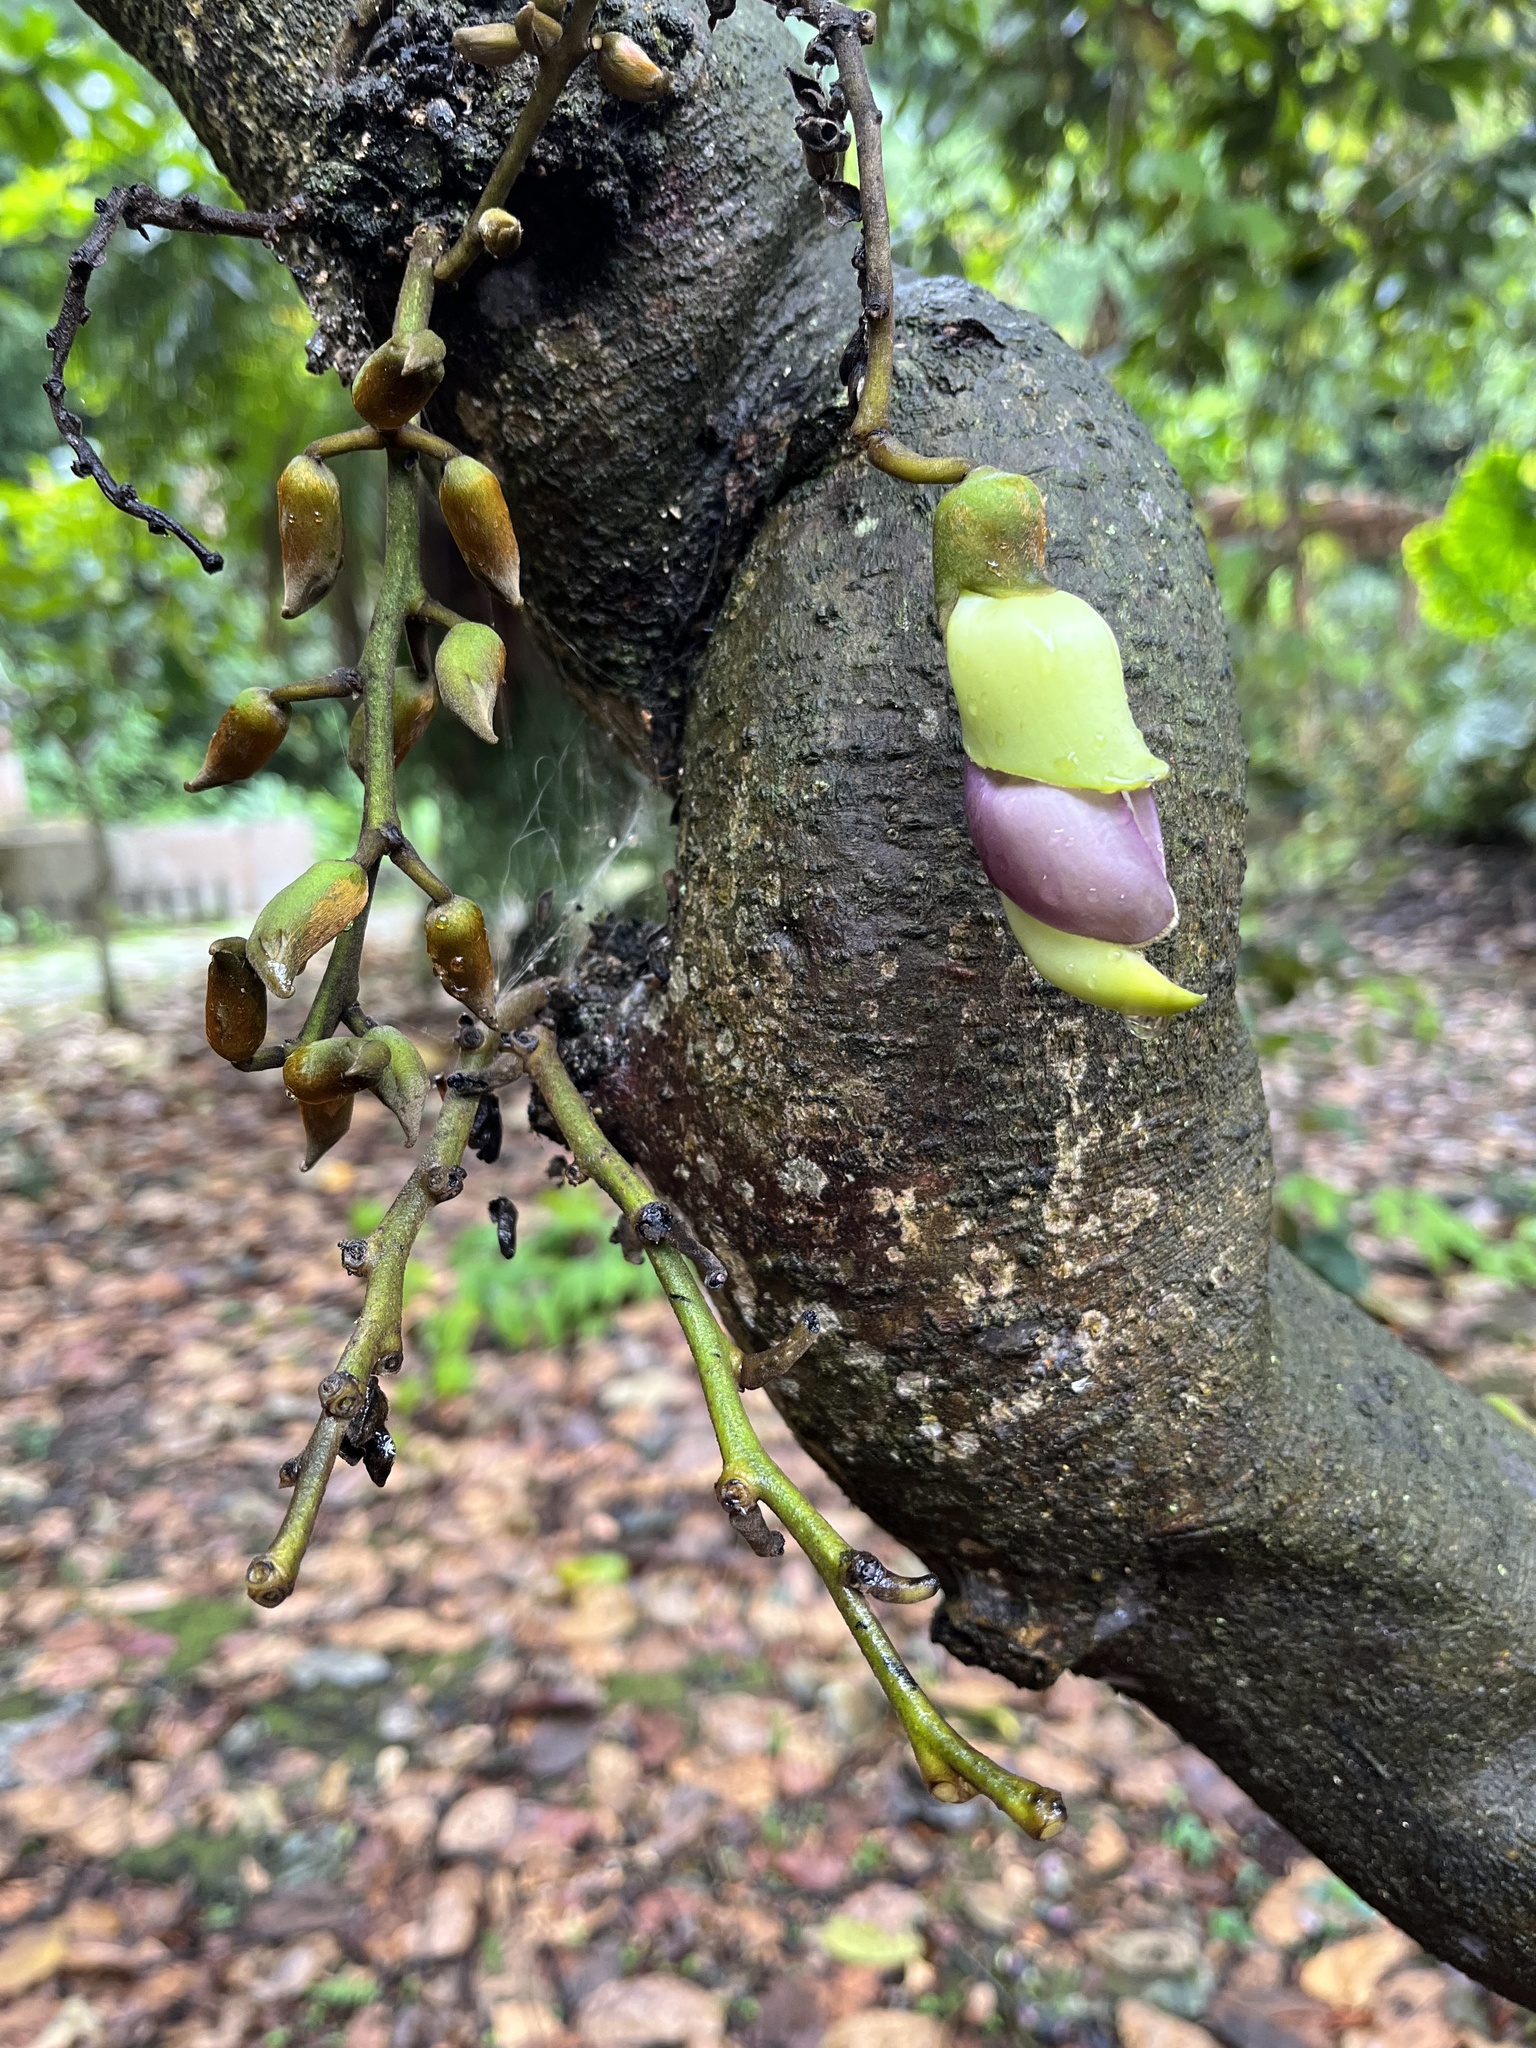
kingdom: Plantae
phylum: Tracheophyta
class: Magnoliopsida
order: Fabales
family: Fabaceae
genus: Mucuna
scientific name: Mucuna macrocarpa
